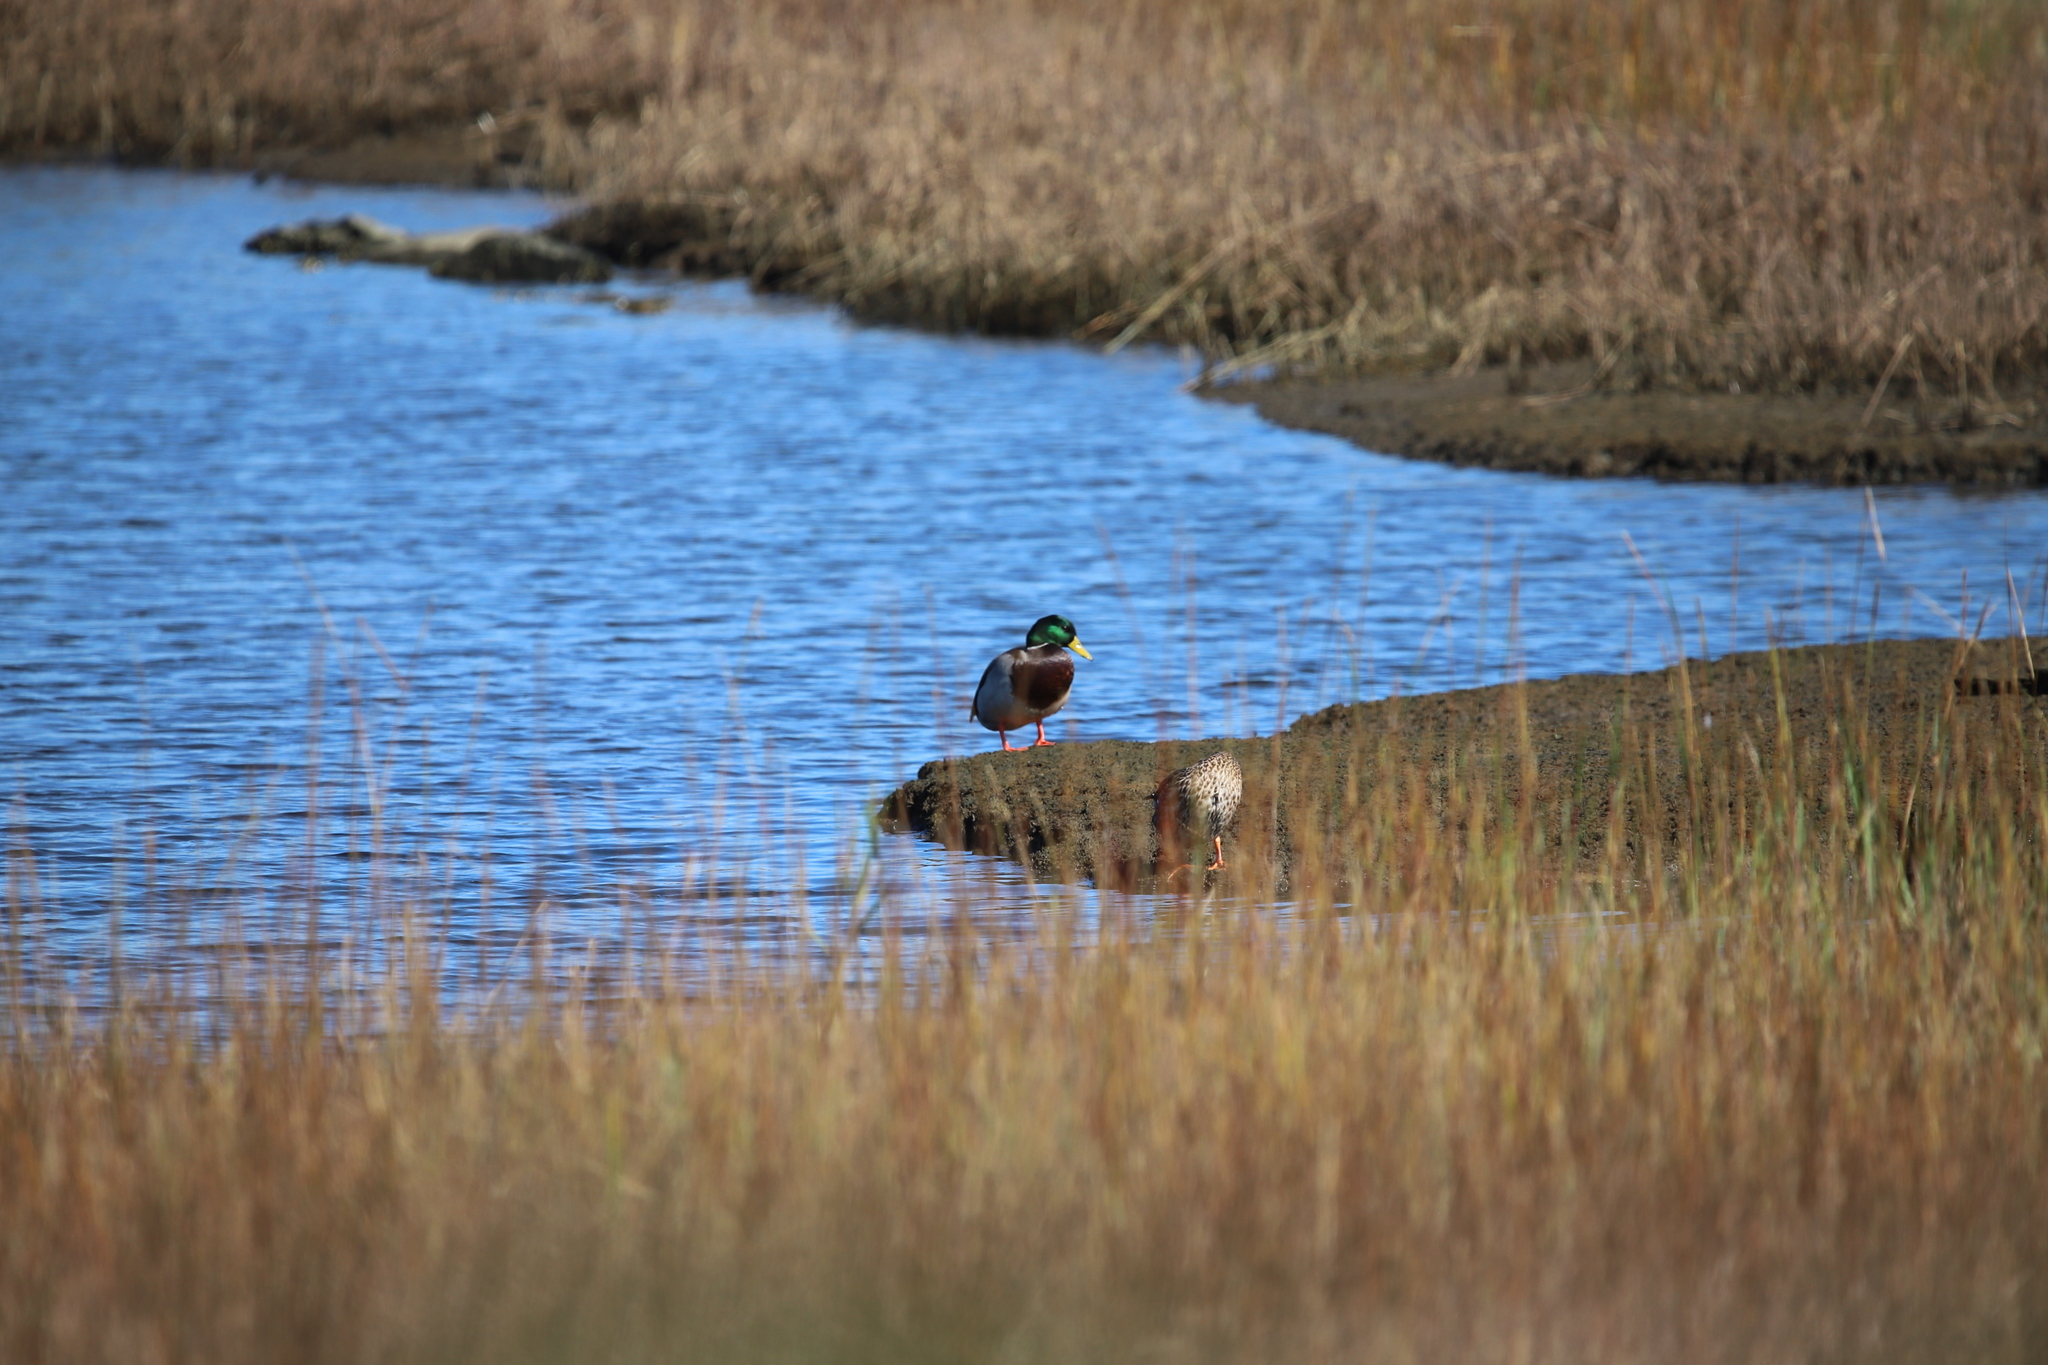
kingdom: Animalia
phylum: Chordata
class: Aves
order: Anseriformes
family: Anatidae
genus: Anas
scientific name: Anas platyrhynchos
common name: Mallard
